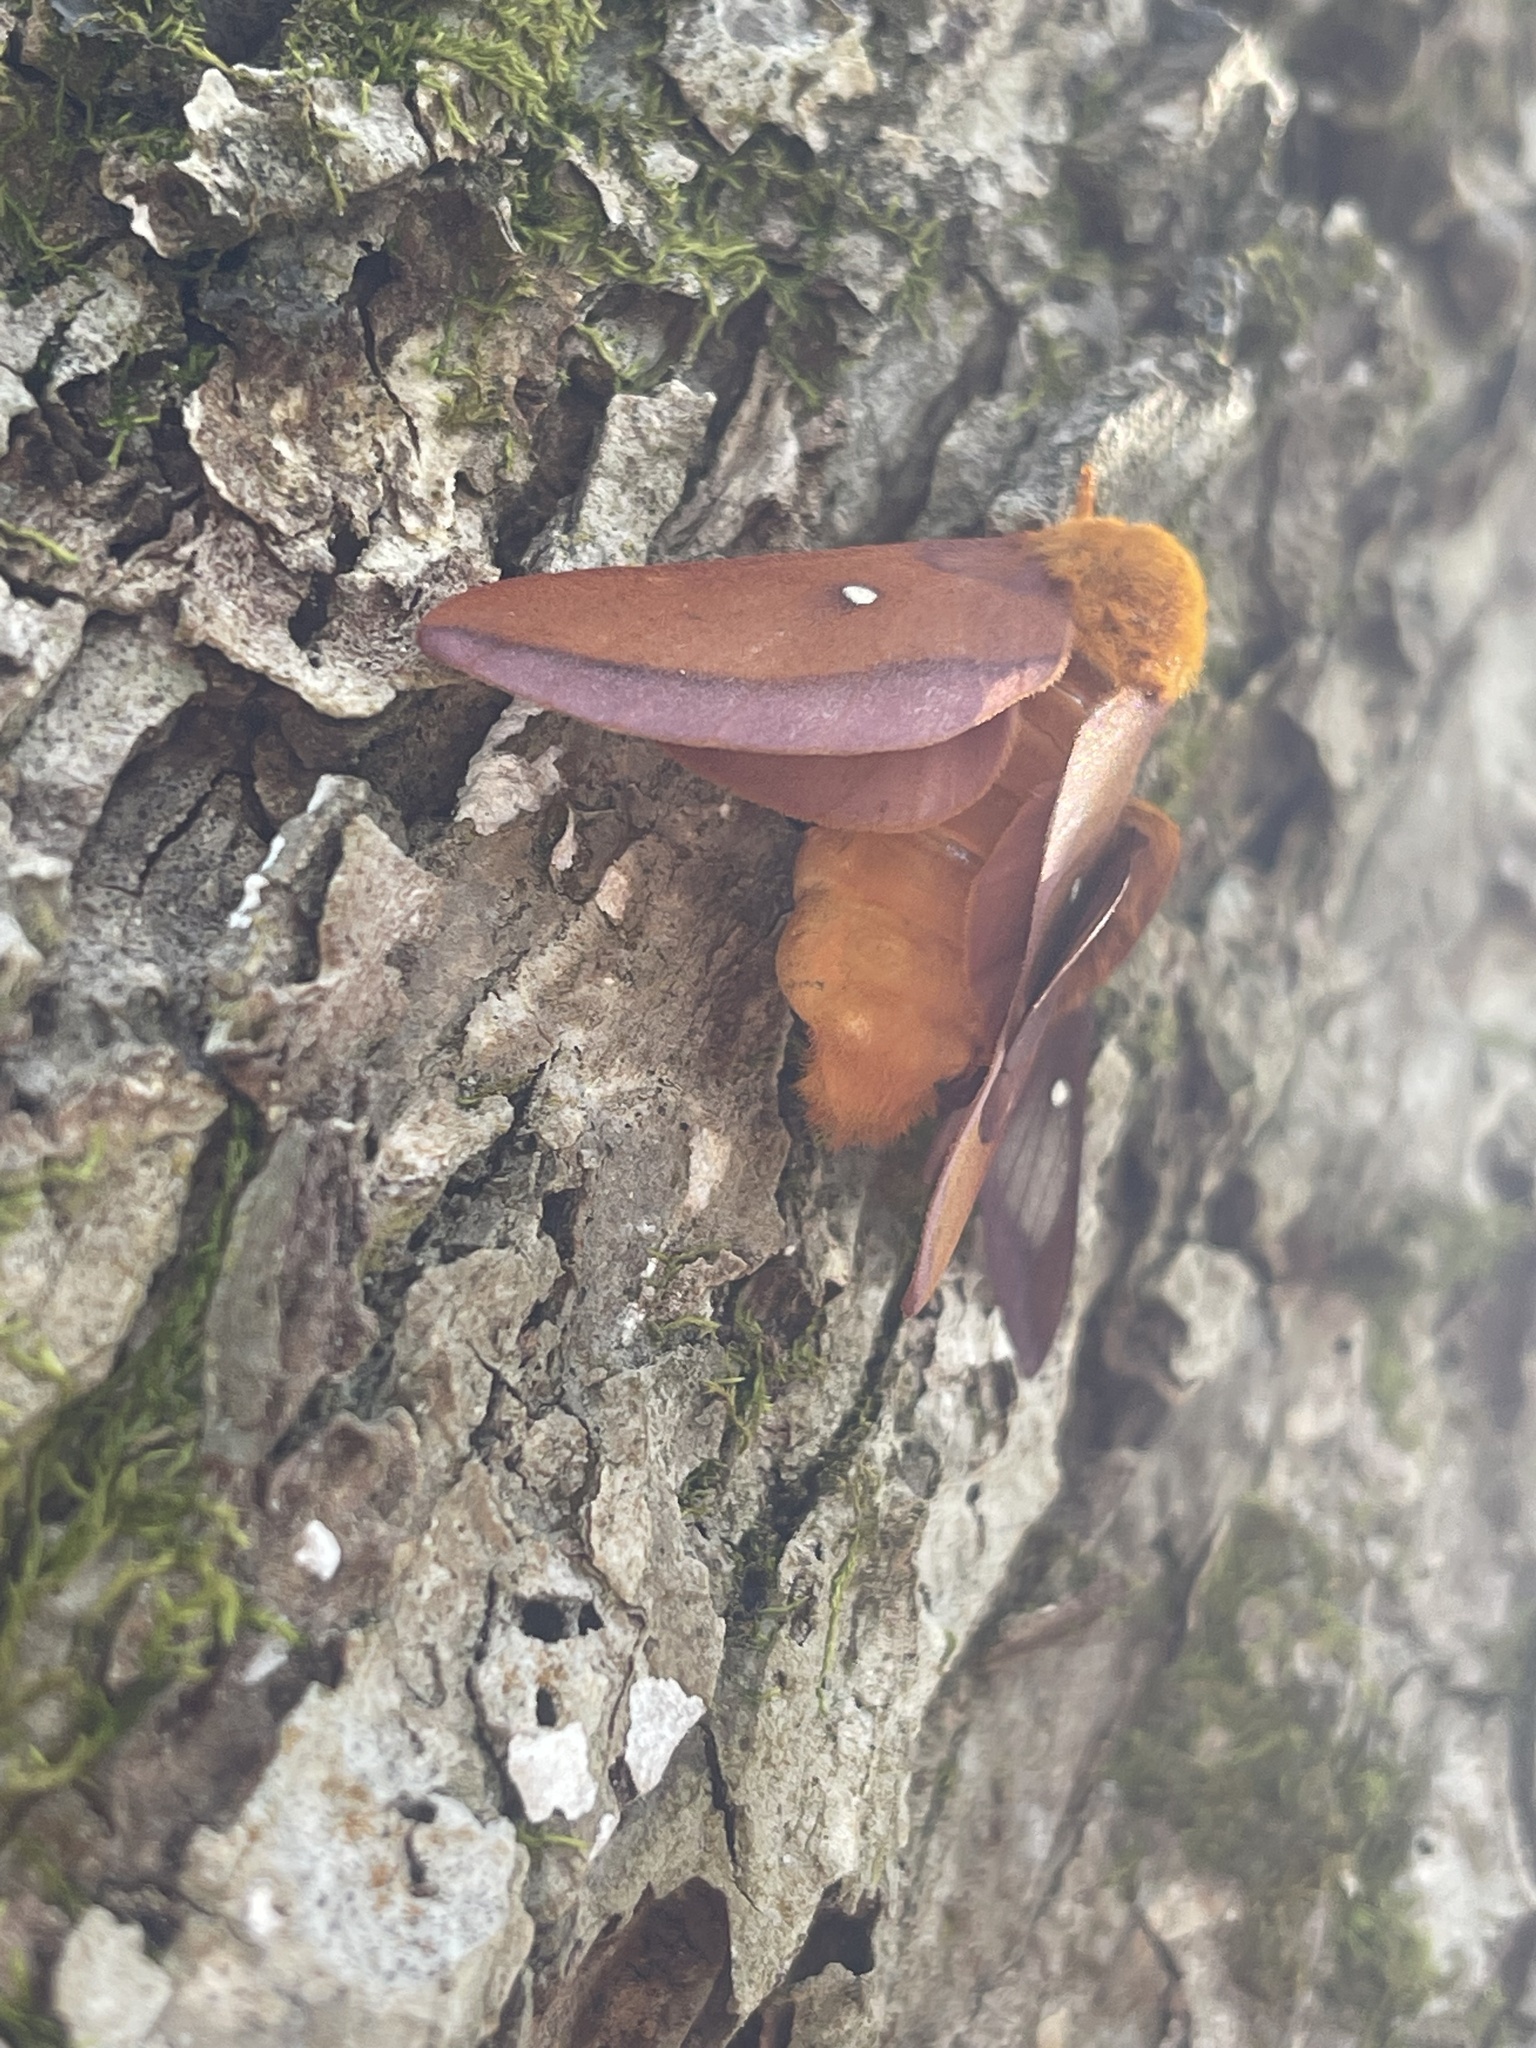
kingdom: Animalia
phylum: Arthropoda
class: Insecta
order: Lepidoptera
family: Saturniidae
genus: Anisota
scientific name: Anisota virginiensis
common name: Pink striped oakworm moth
